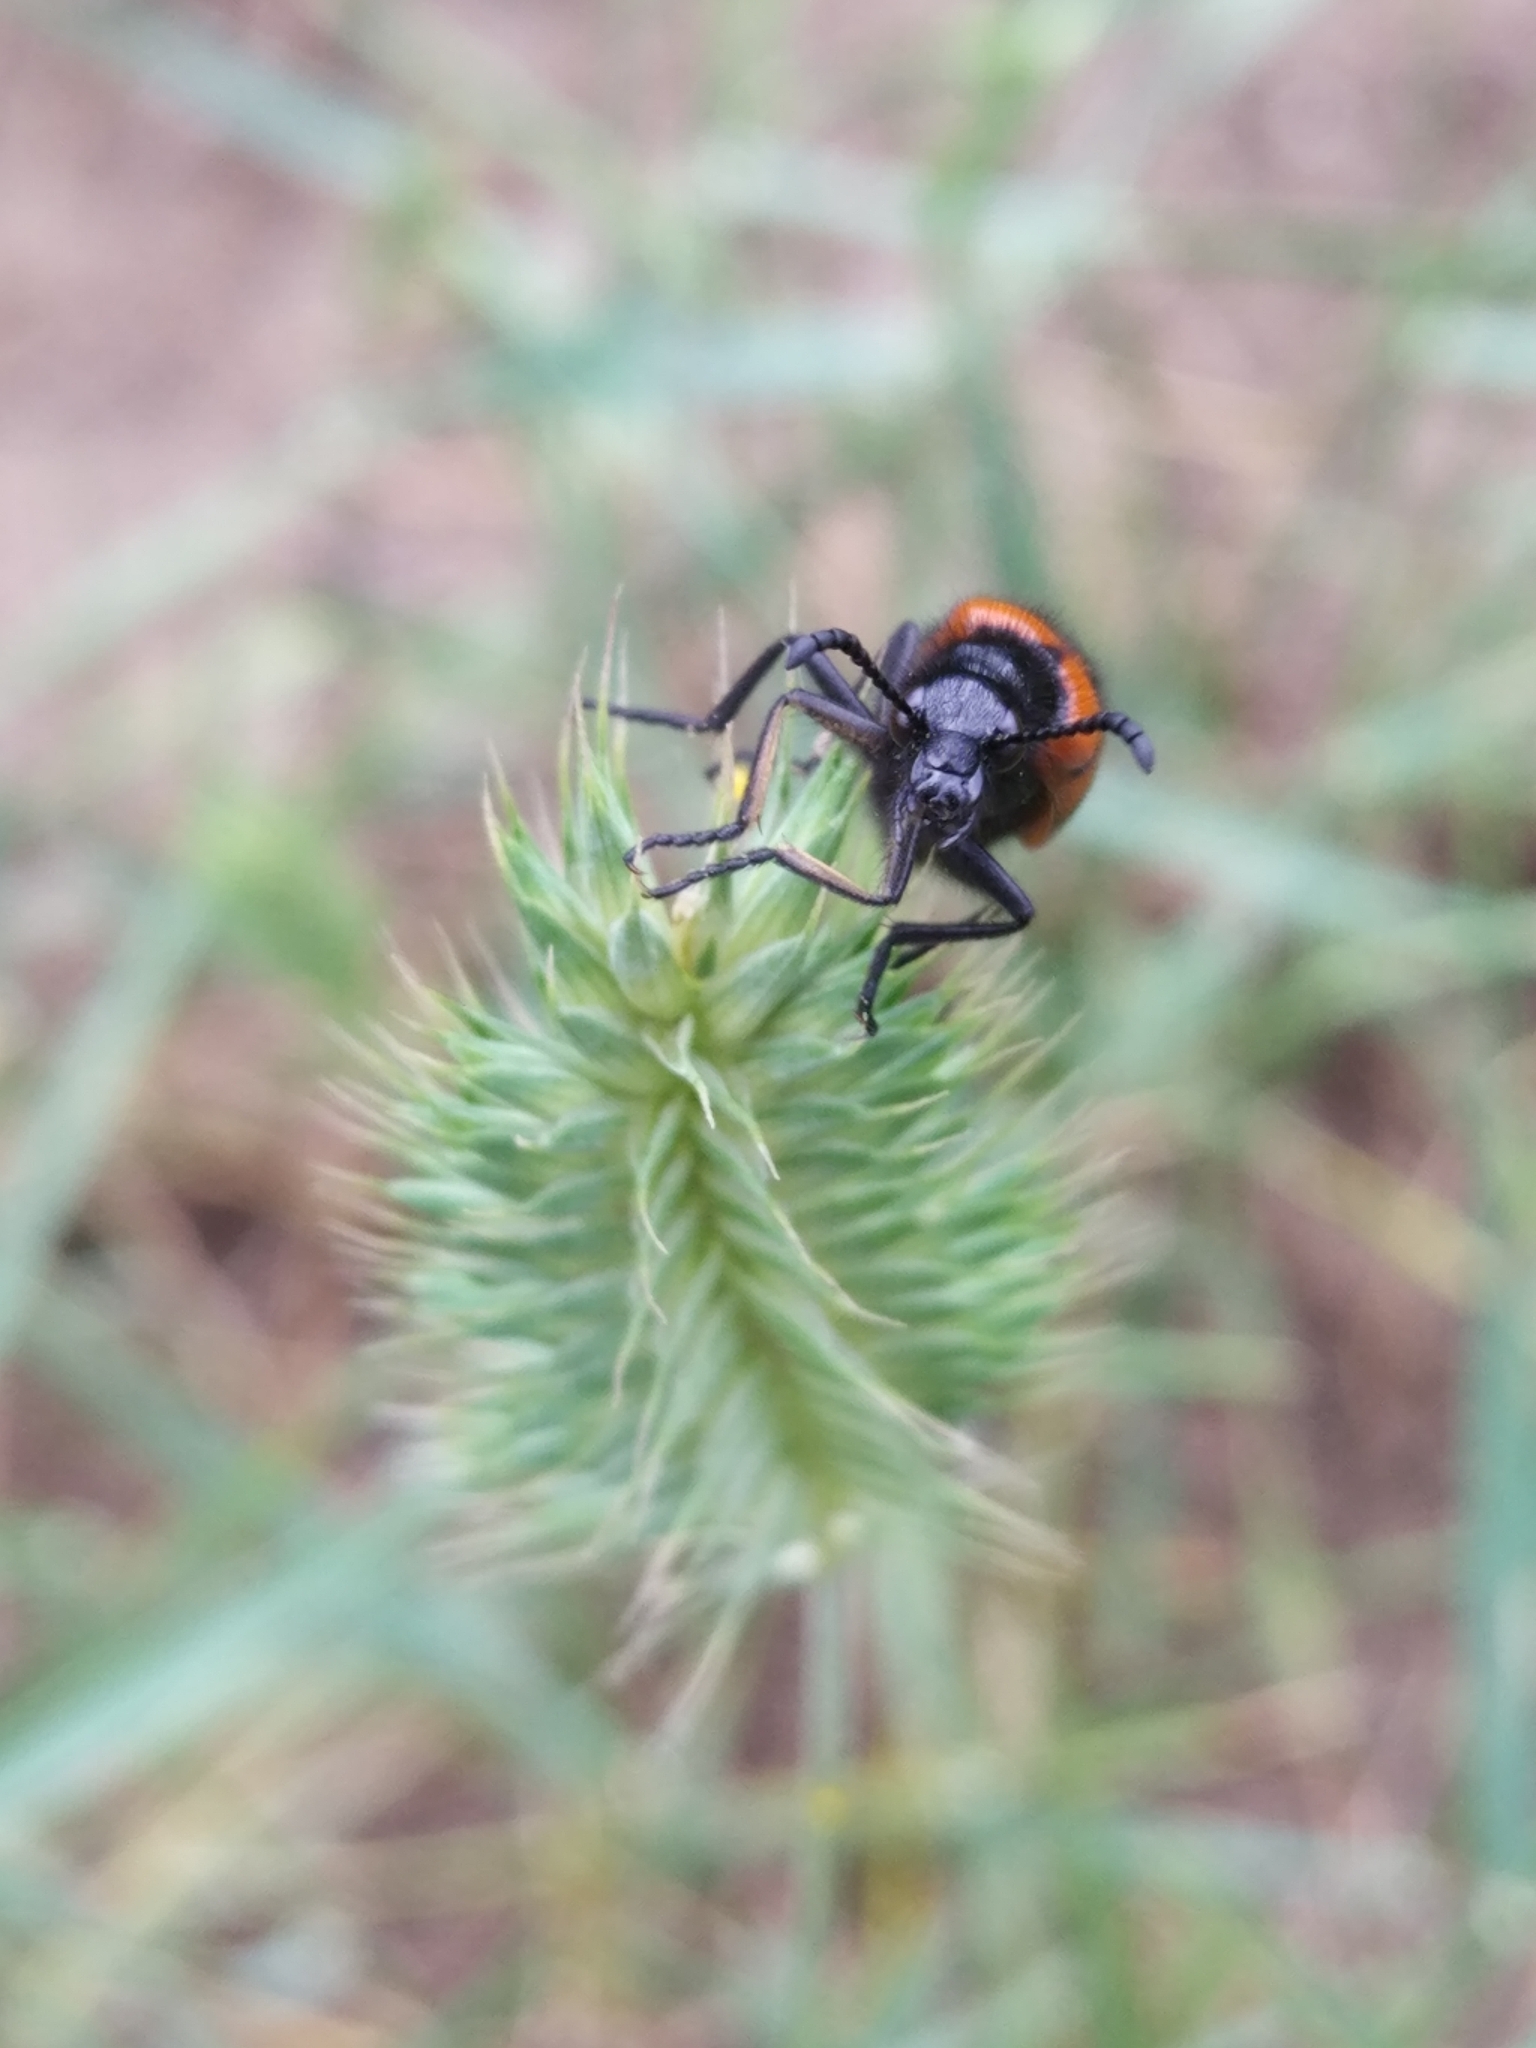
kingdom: Animalia
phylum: Arthropoda
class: Insecta
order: Coleoptera
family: Meloidae
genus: Mylabris
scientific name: Mylabris quadripunctata
